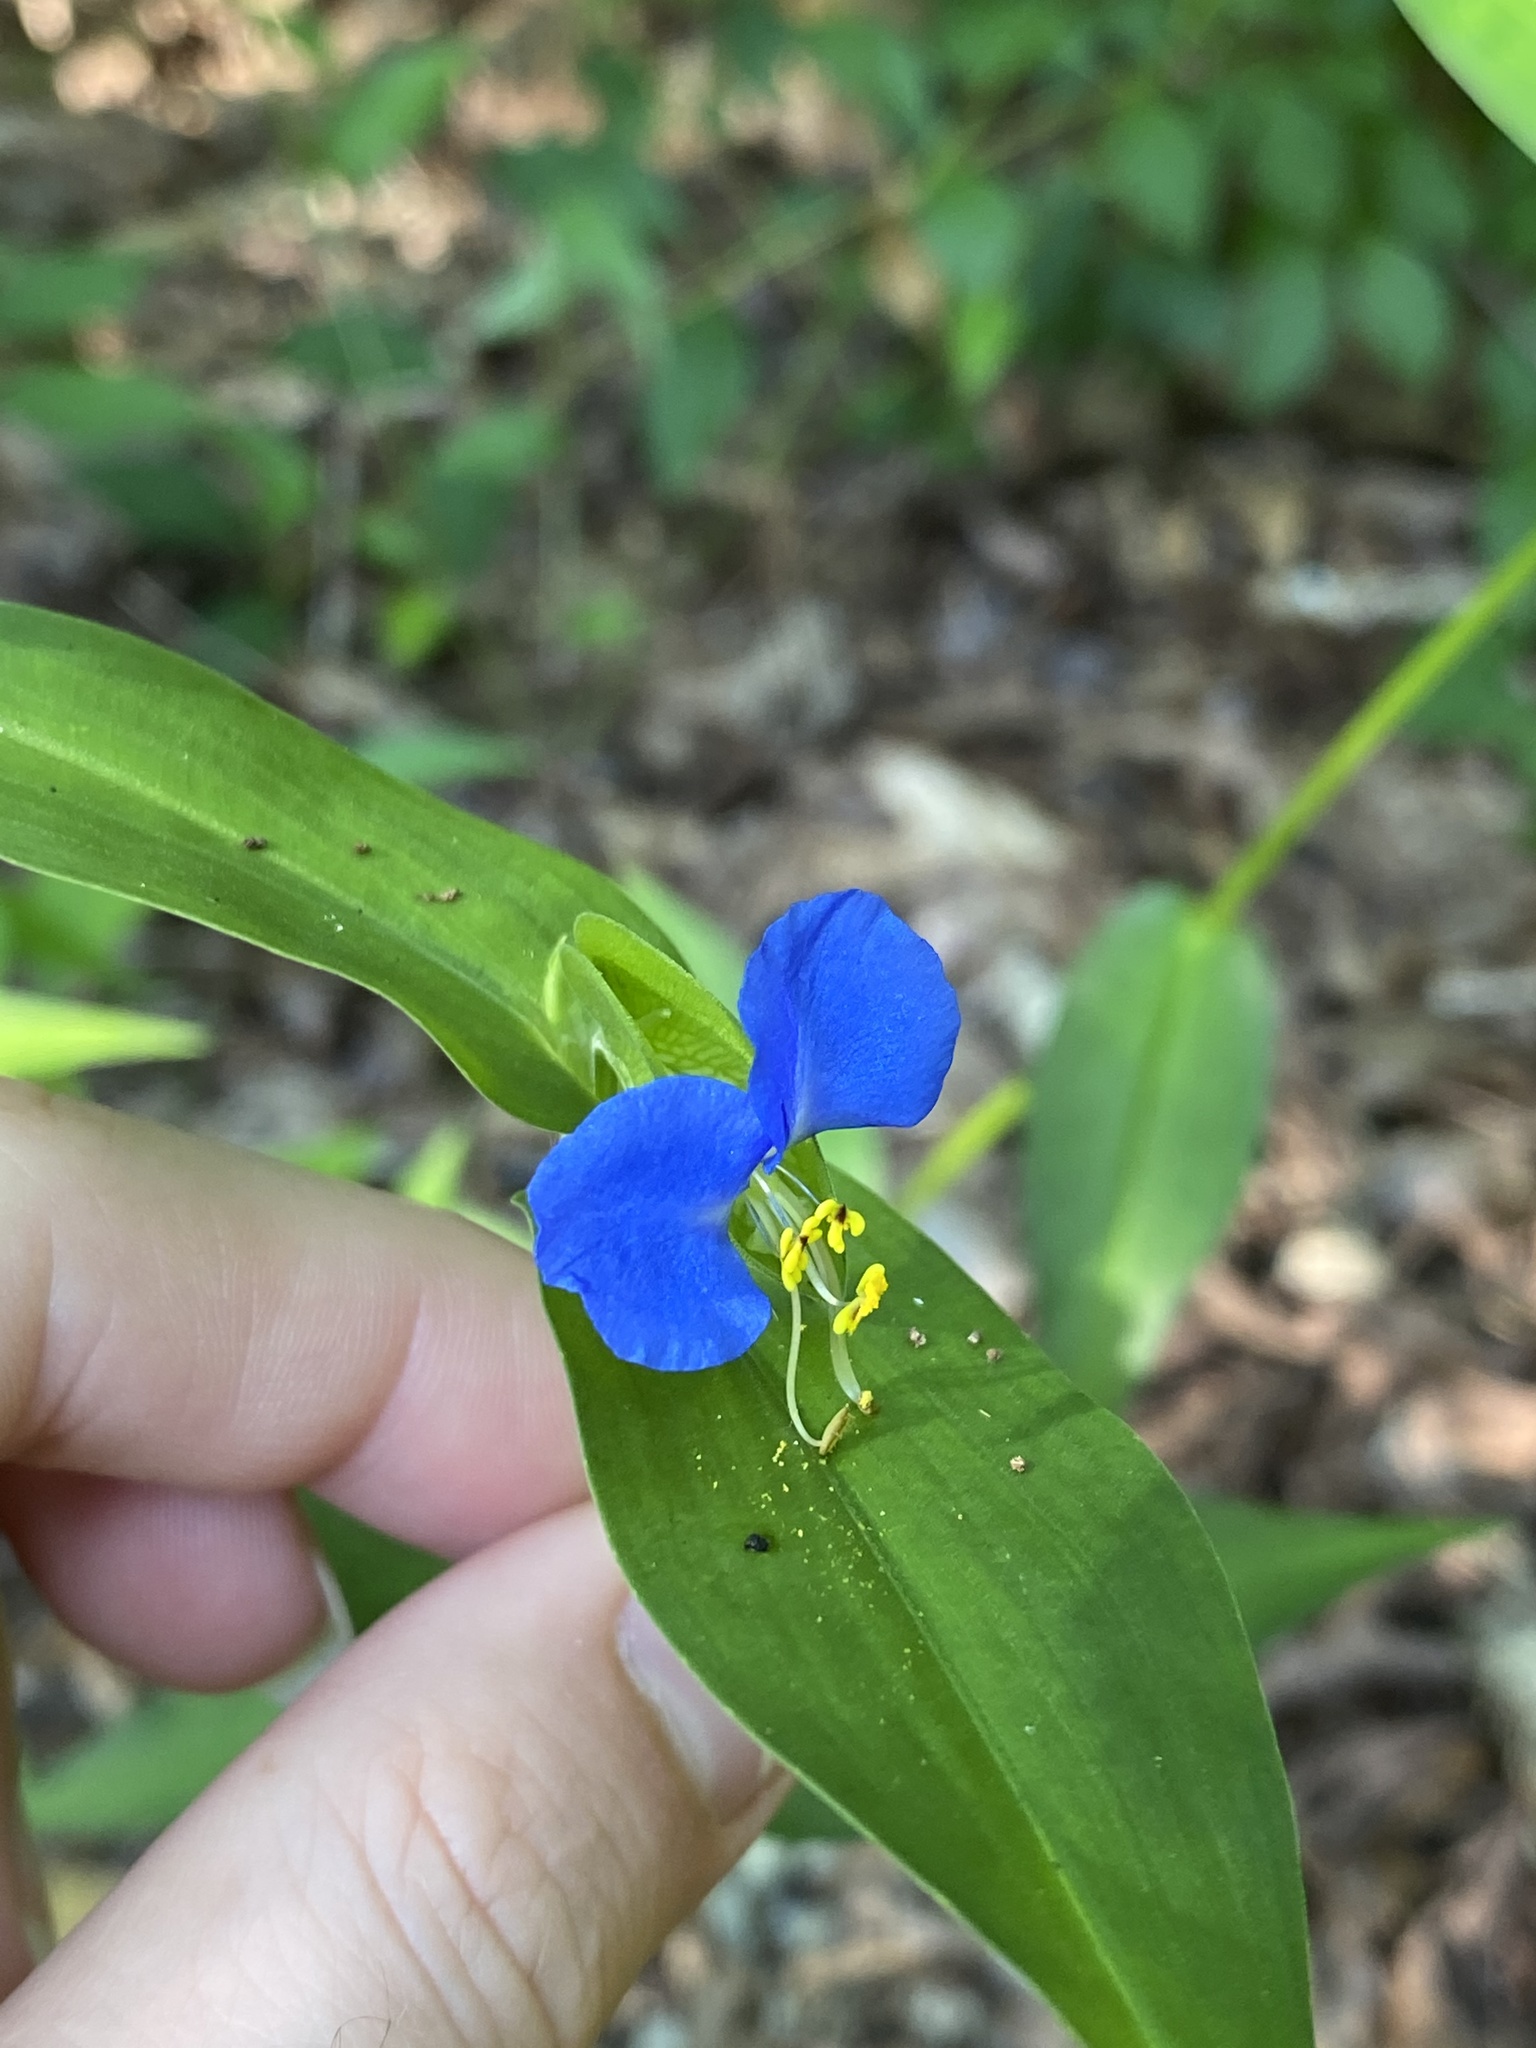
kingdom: Plantae
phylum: Tracheophyta
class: Liliopsida
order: Commelinales
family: Commelinaceae
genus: Commelina
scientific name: Commelina communis
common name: Asiatic dayflower
